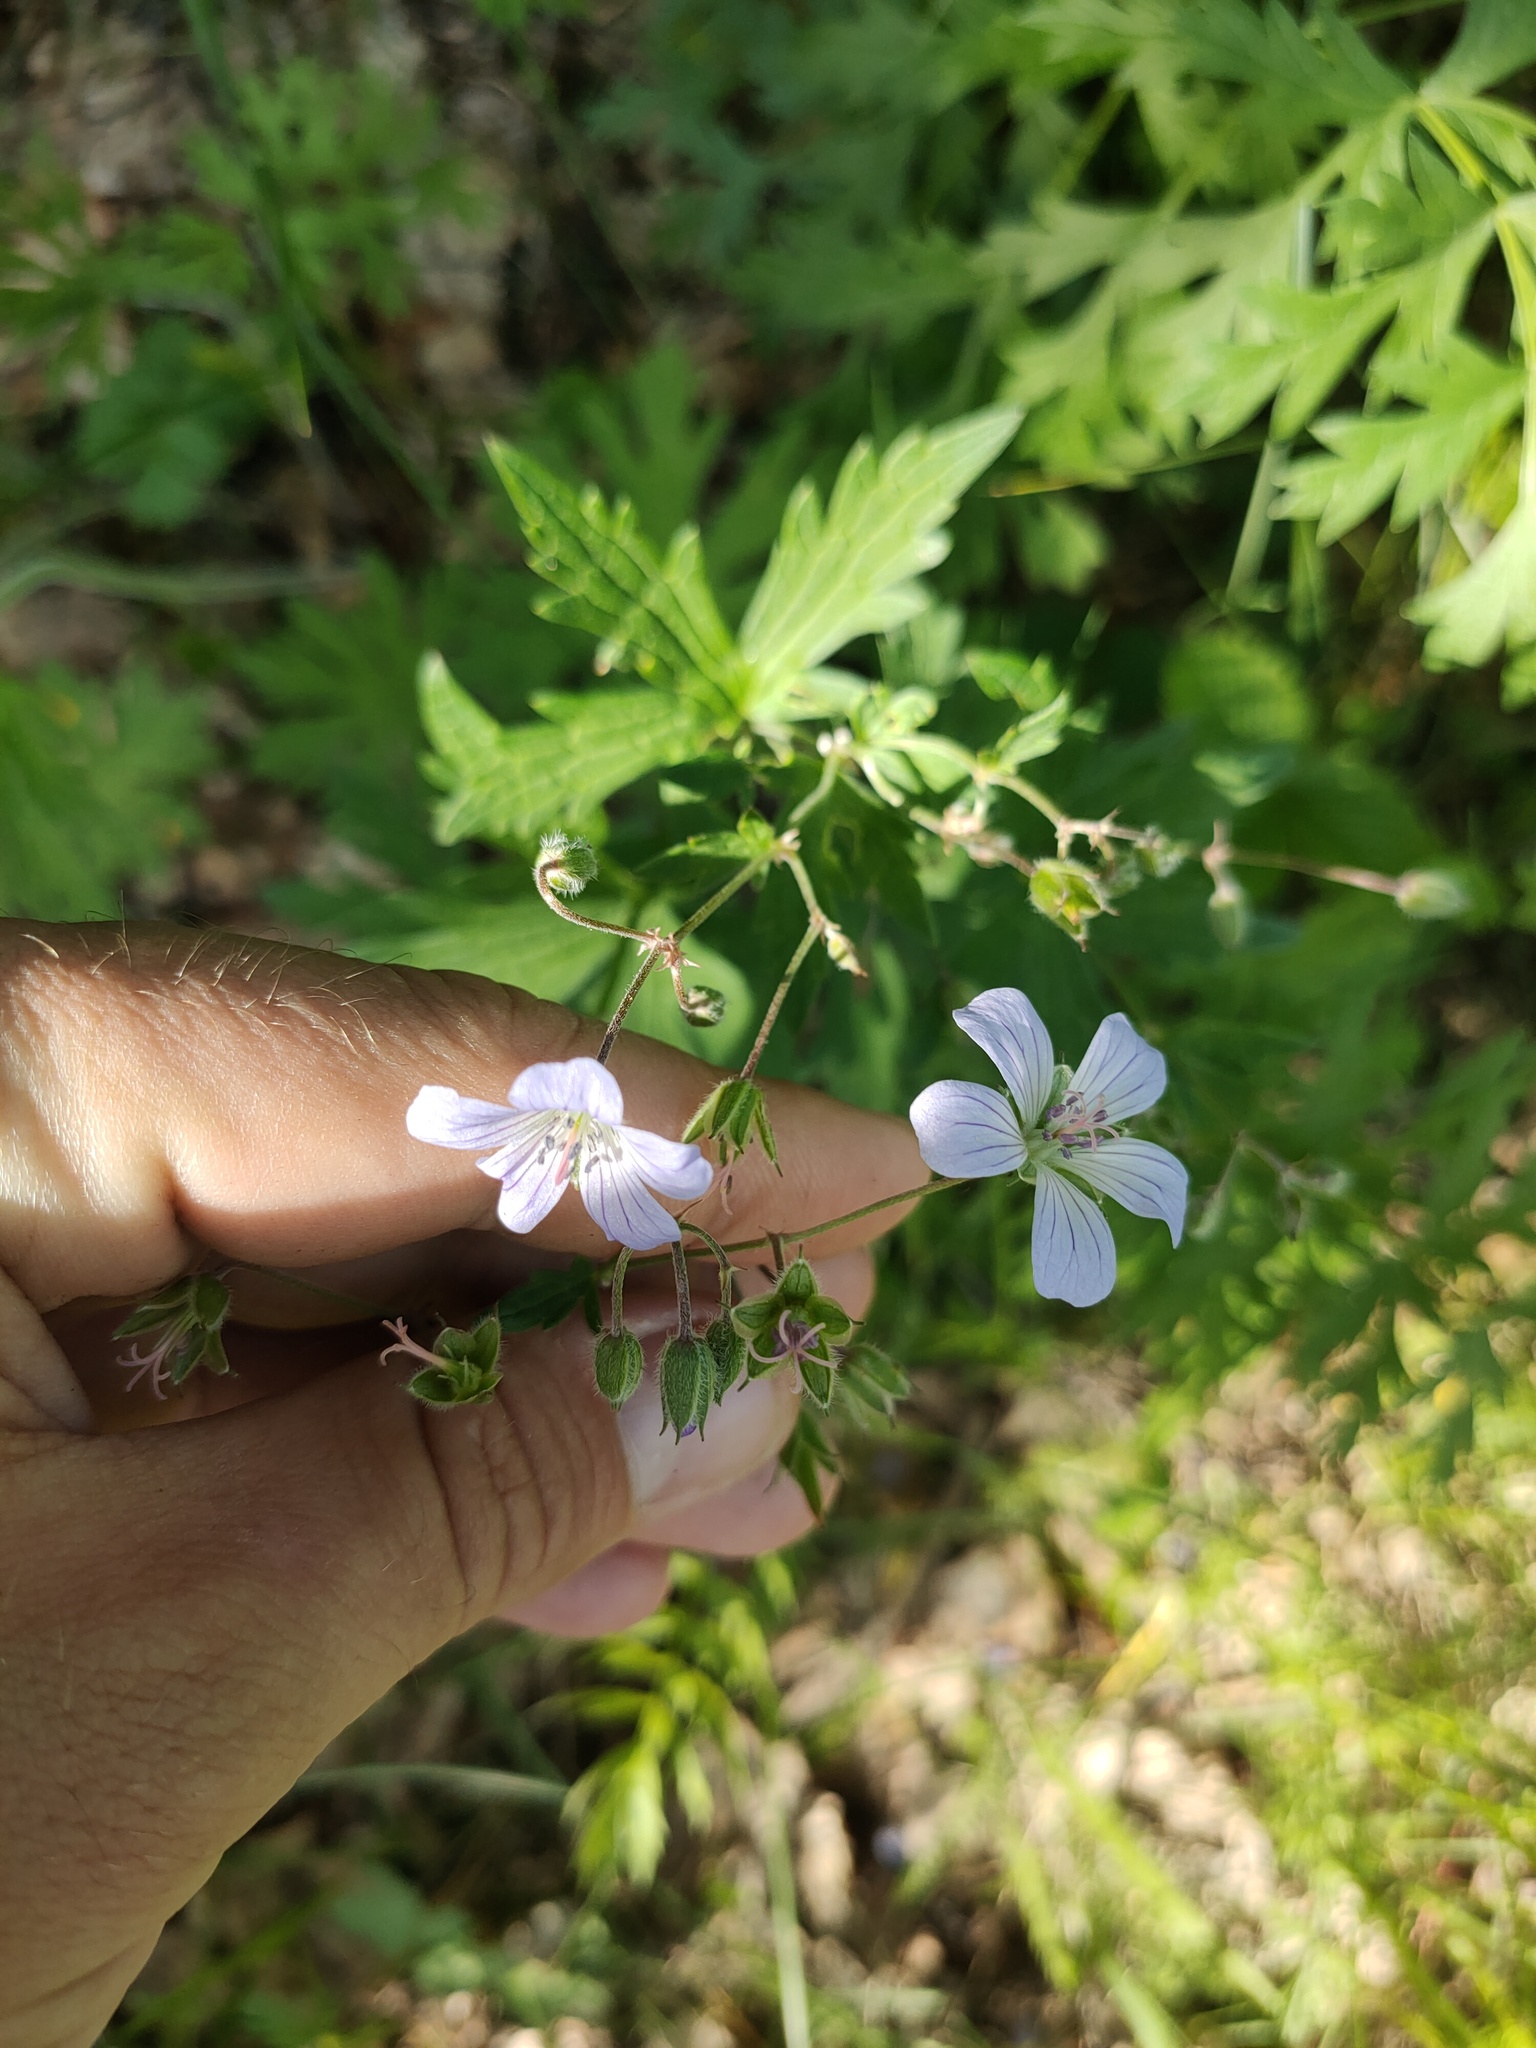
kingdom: Plantae
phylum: Tracheophyta
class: Magnoliopsida
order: Geraniales
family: Geraniaceae
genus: Geranium
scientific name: Geranium pseudosibiricum
